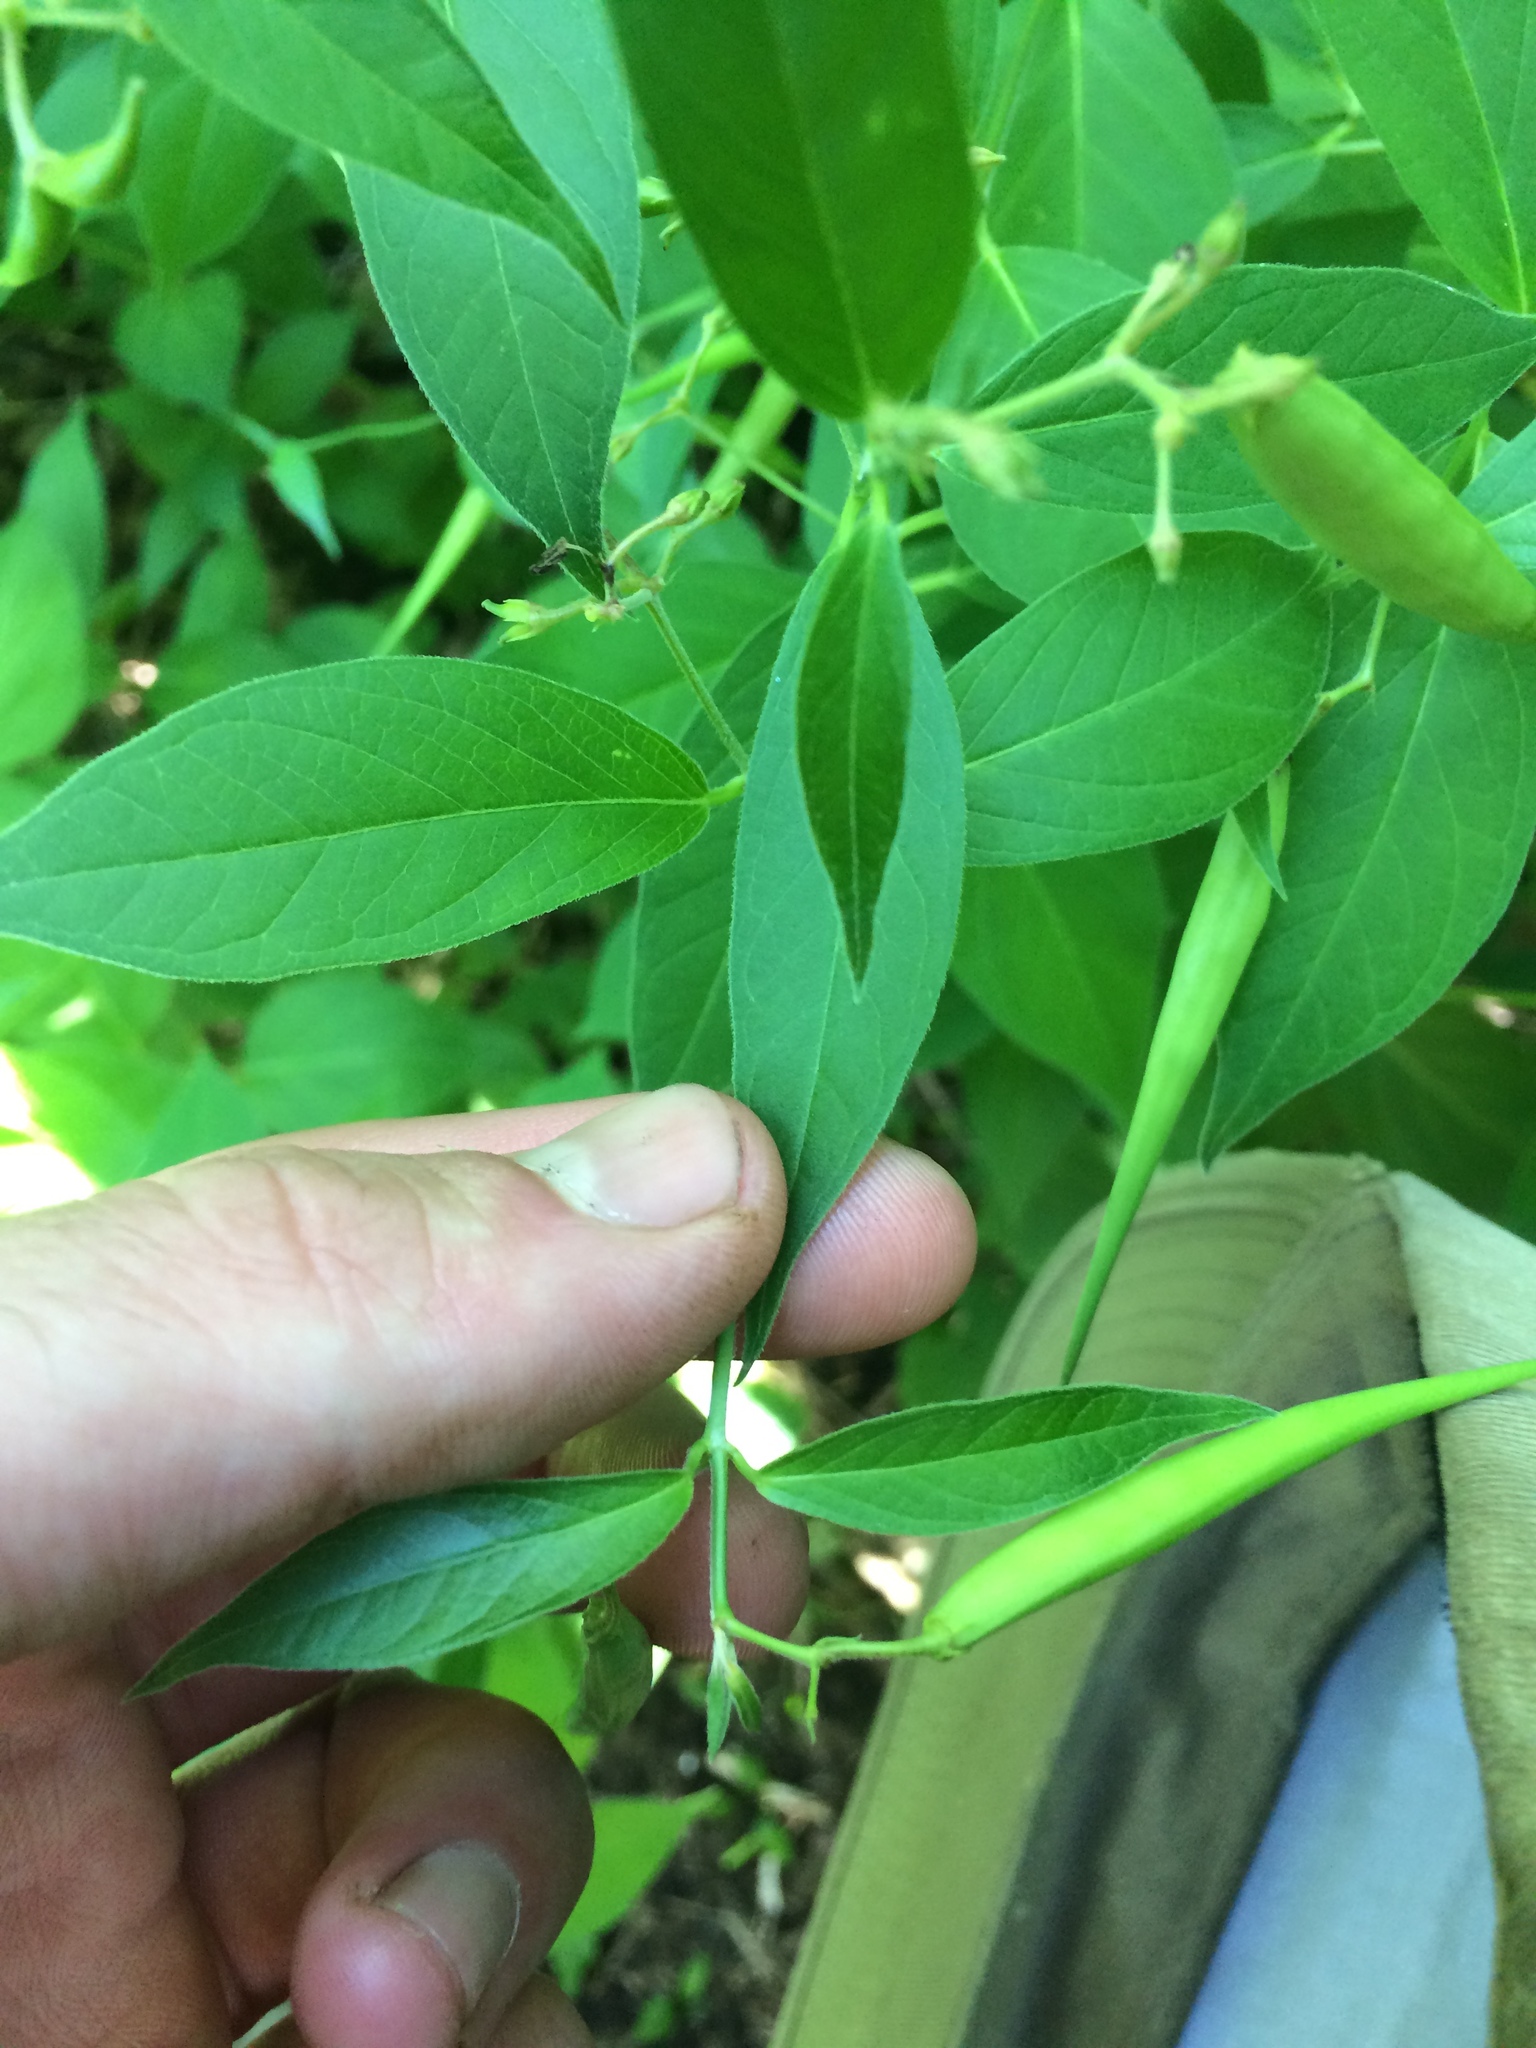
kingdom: Plantae
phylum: Tracheophyta
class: Magnoliopsida
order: Gentianales
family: Apocynaceae
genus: Vincetoxicum
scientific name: Vincetoxicum rossicum
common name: Dog-strangling vine
